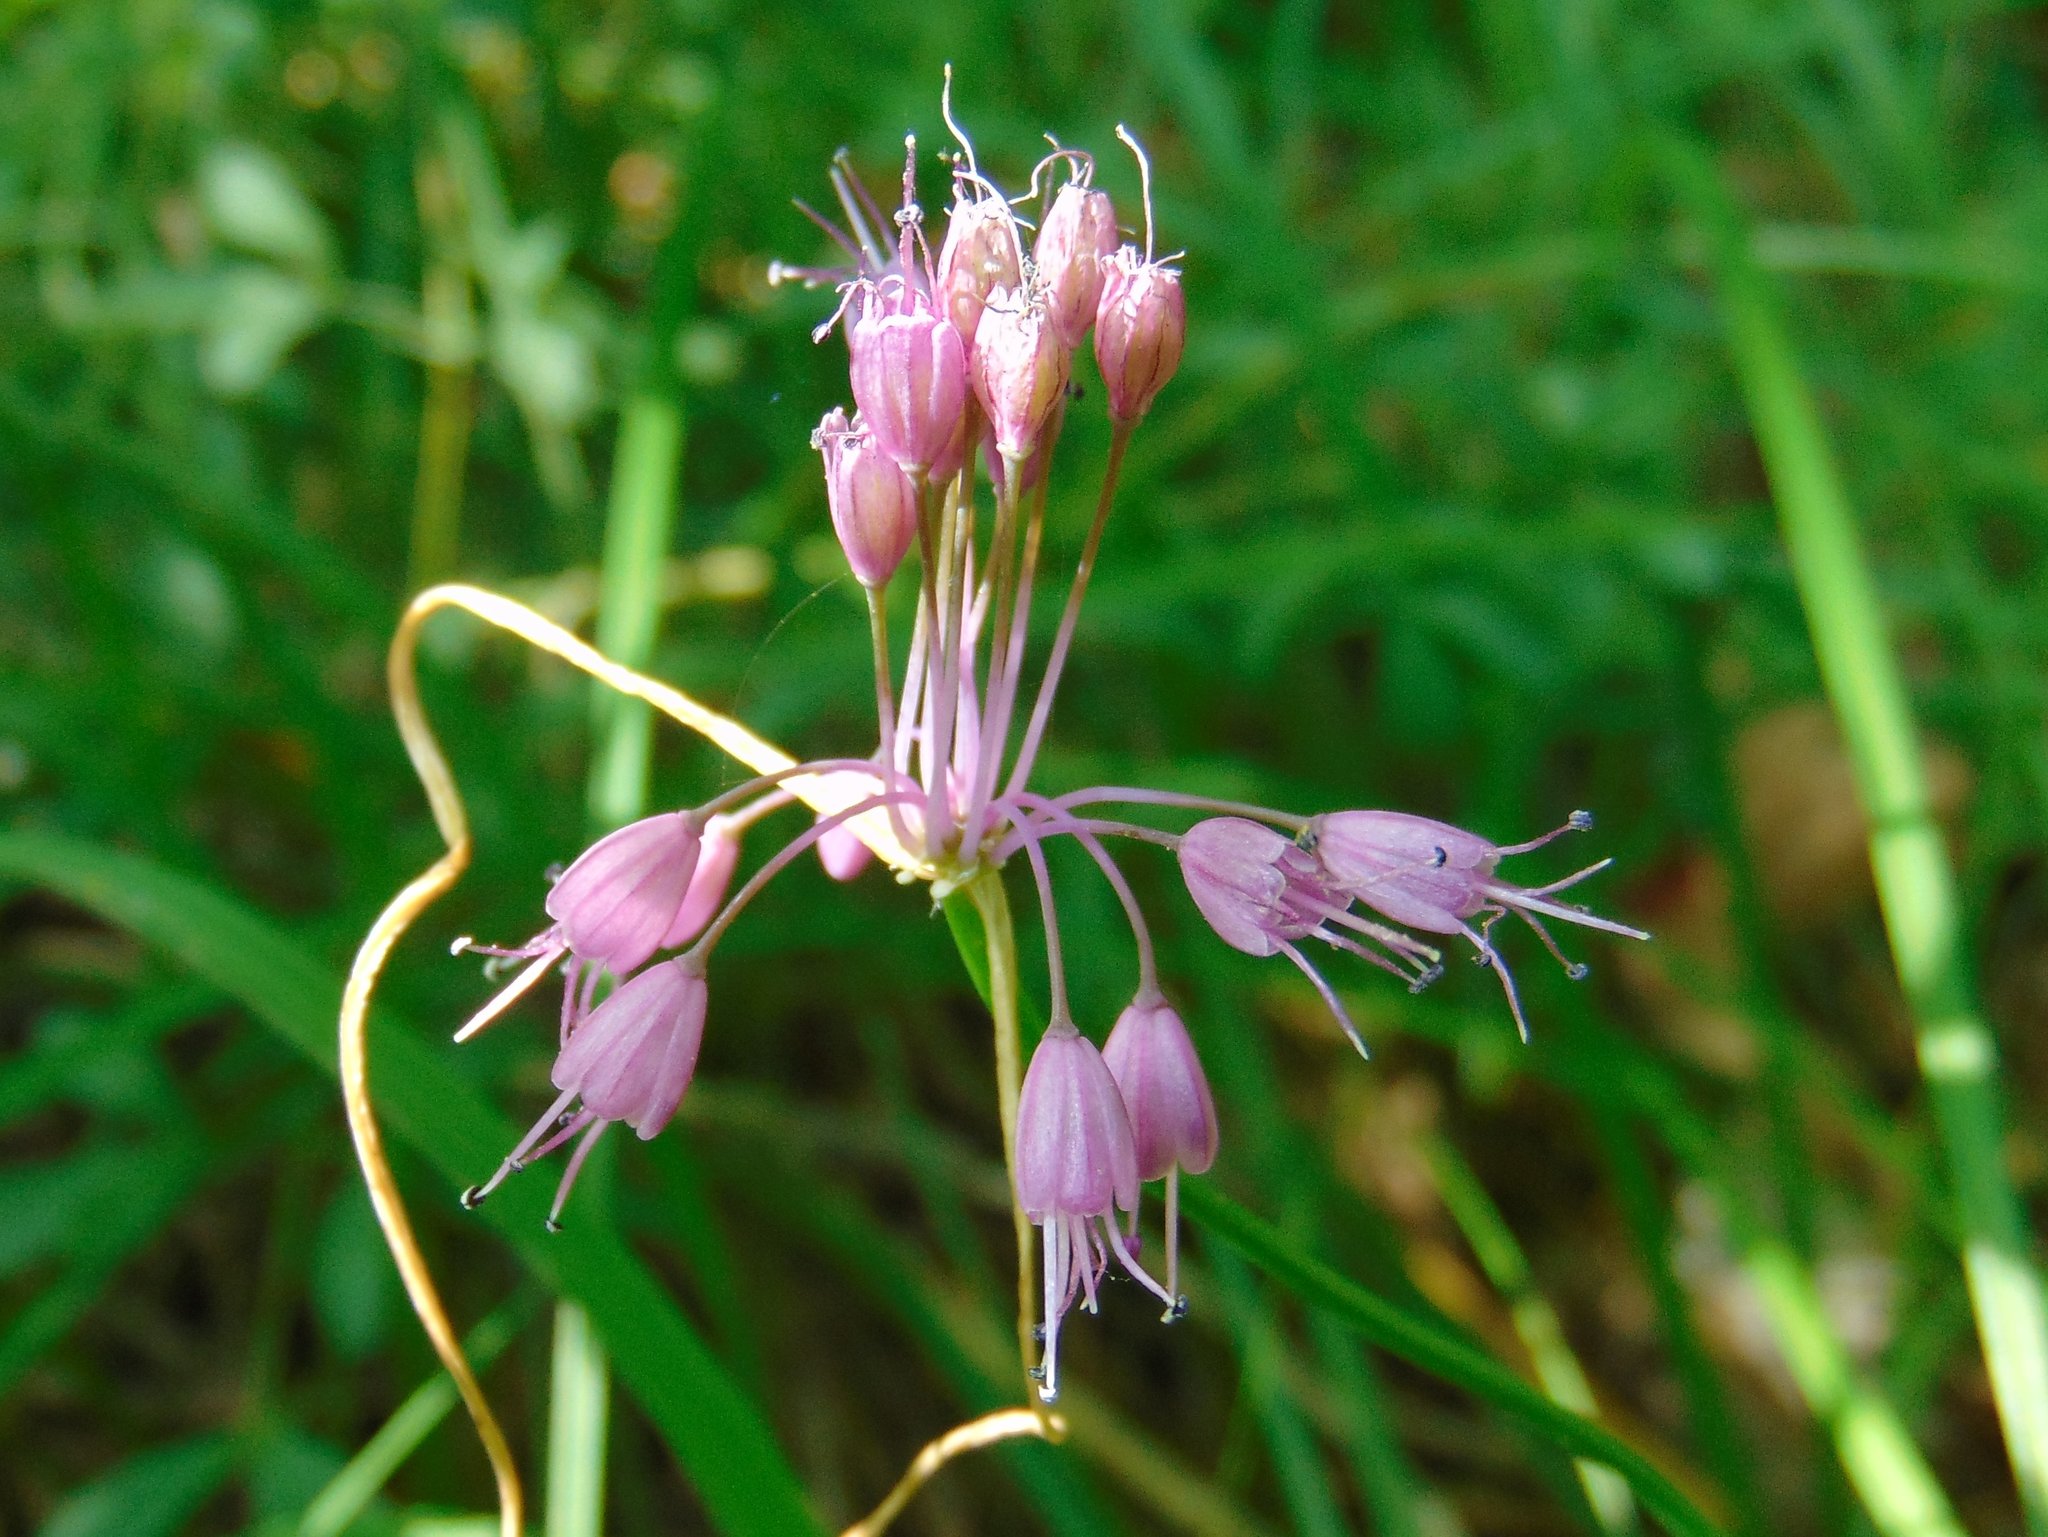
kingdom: Plantae
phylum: Tracheophyta
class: Liliopsida
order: Asparagales
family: Amaryllidaceae
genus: Allium
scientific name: Allium carinatum
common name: Keeled garlic
